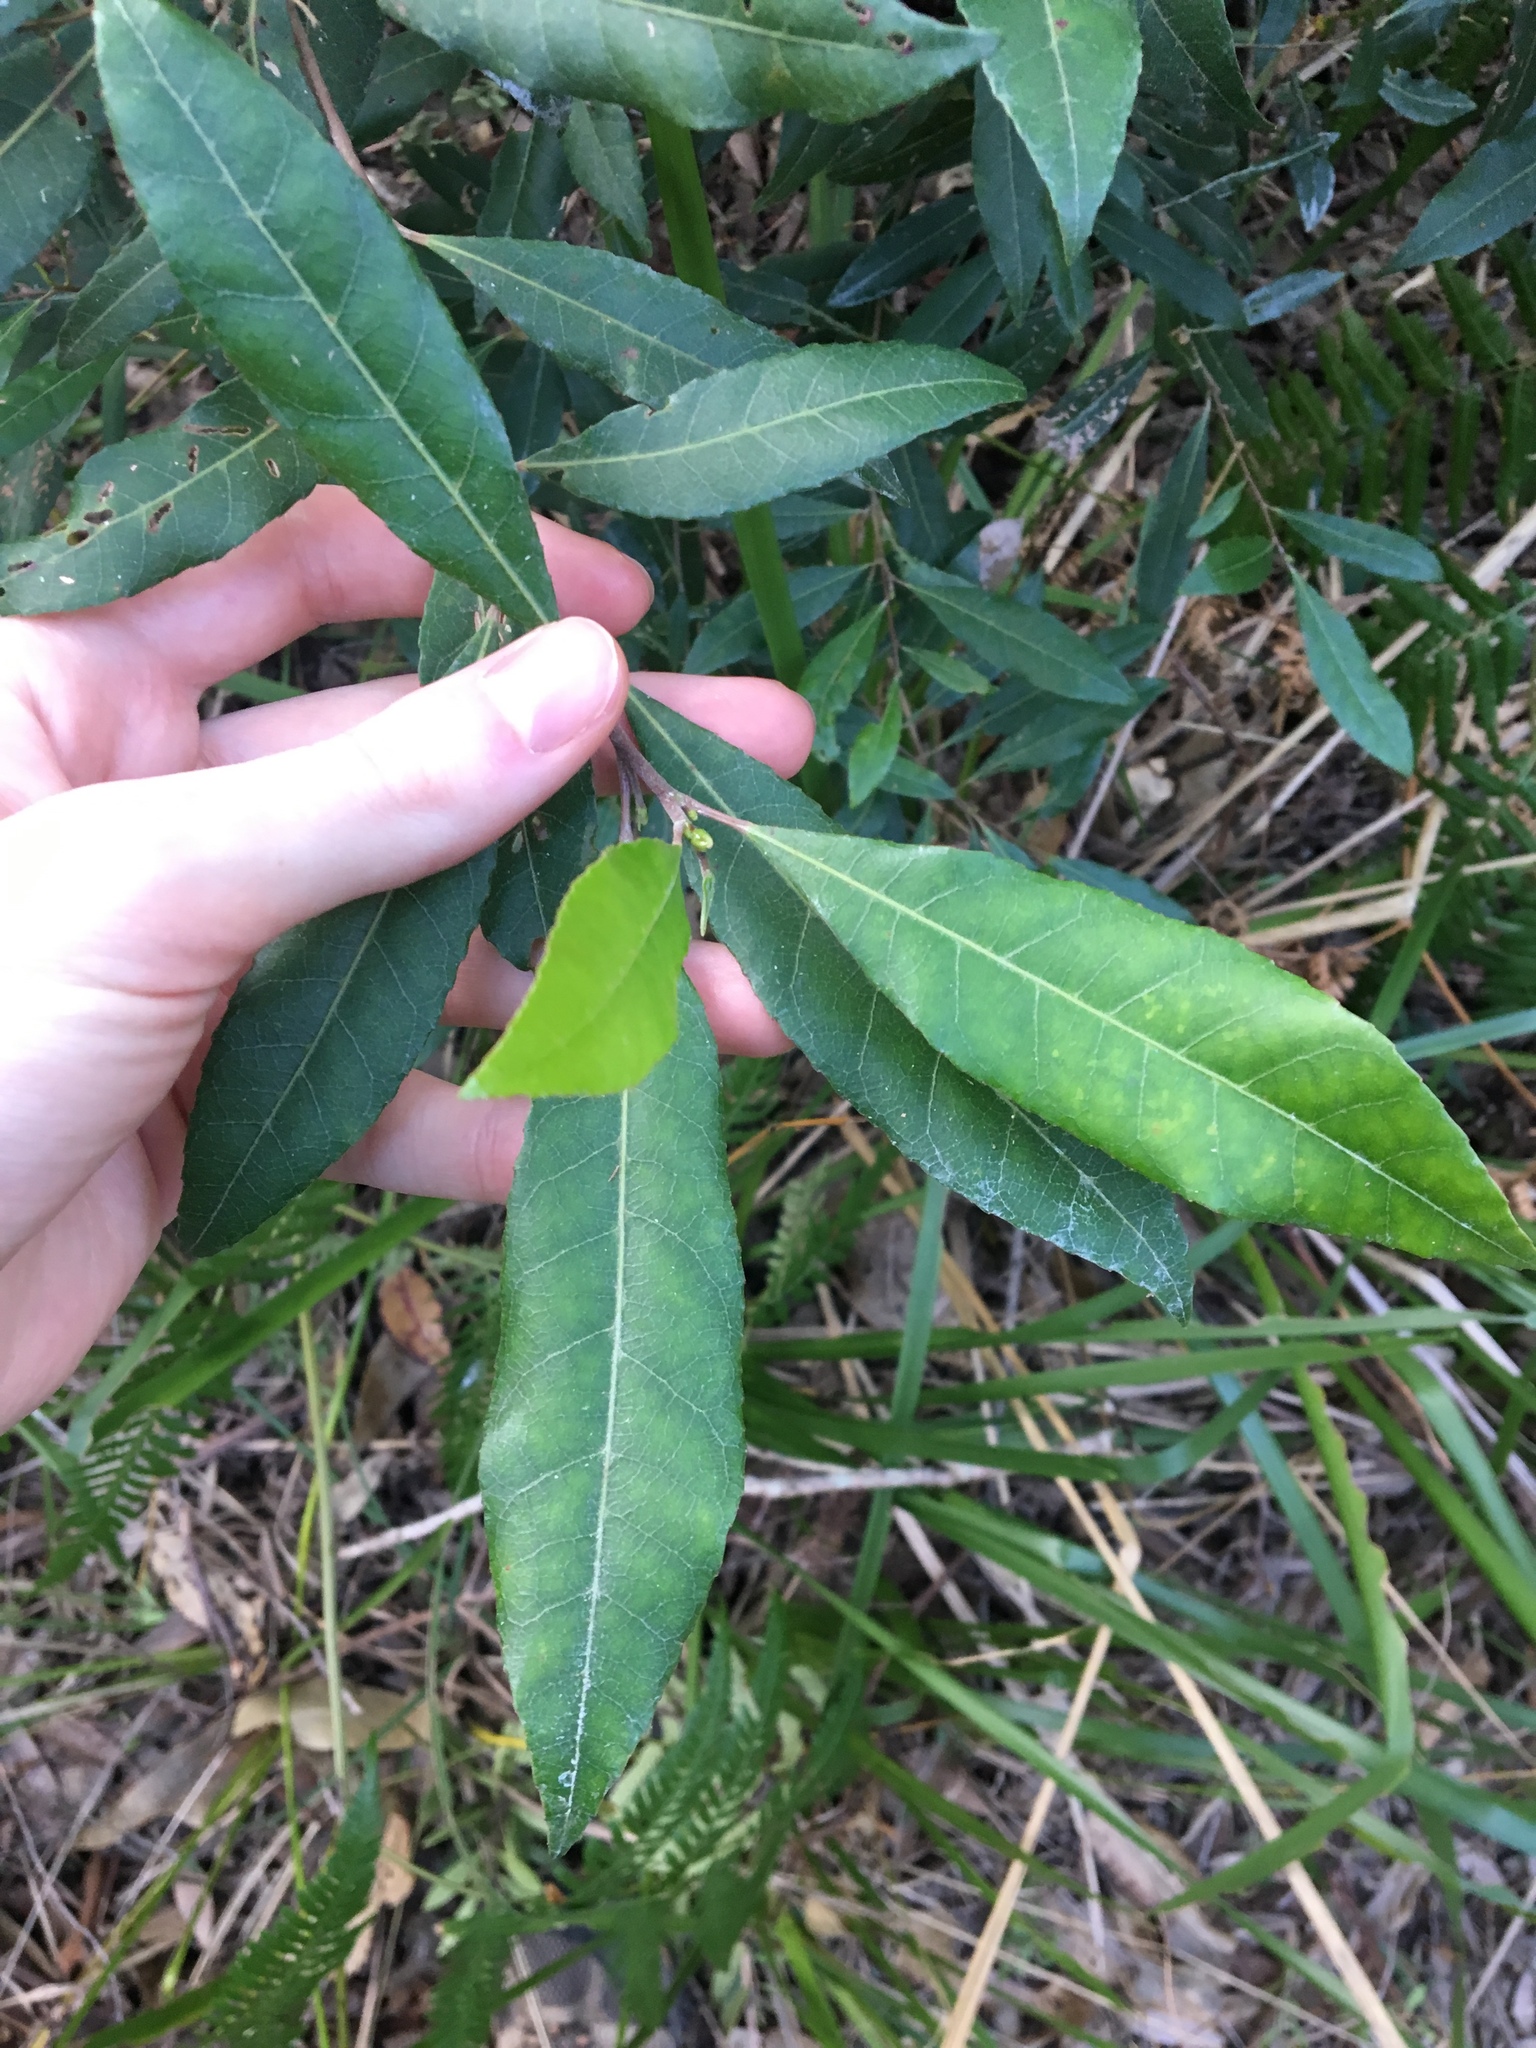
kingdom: Plantae
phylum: Tracheophyta
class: Magnoliopsida
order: Oxalidales
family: Elaeocarpaceae
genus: Elaeocarpus
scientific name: Elaeocarpus reticulatus
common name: Ash quandong
